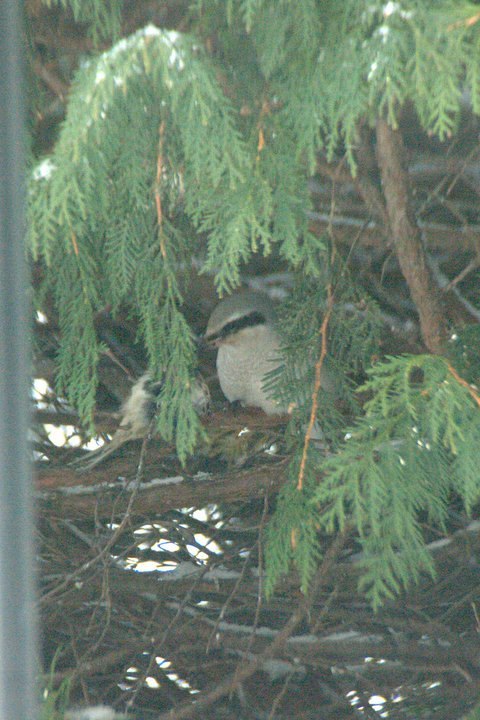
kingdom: Animalia
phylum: Chordata
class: Aves
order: Passeriformes
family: Laniidae
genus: Lanius
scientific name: Lanius borealis
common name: Northern shrike
